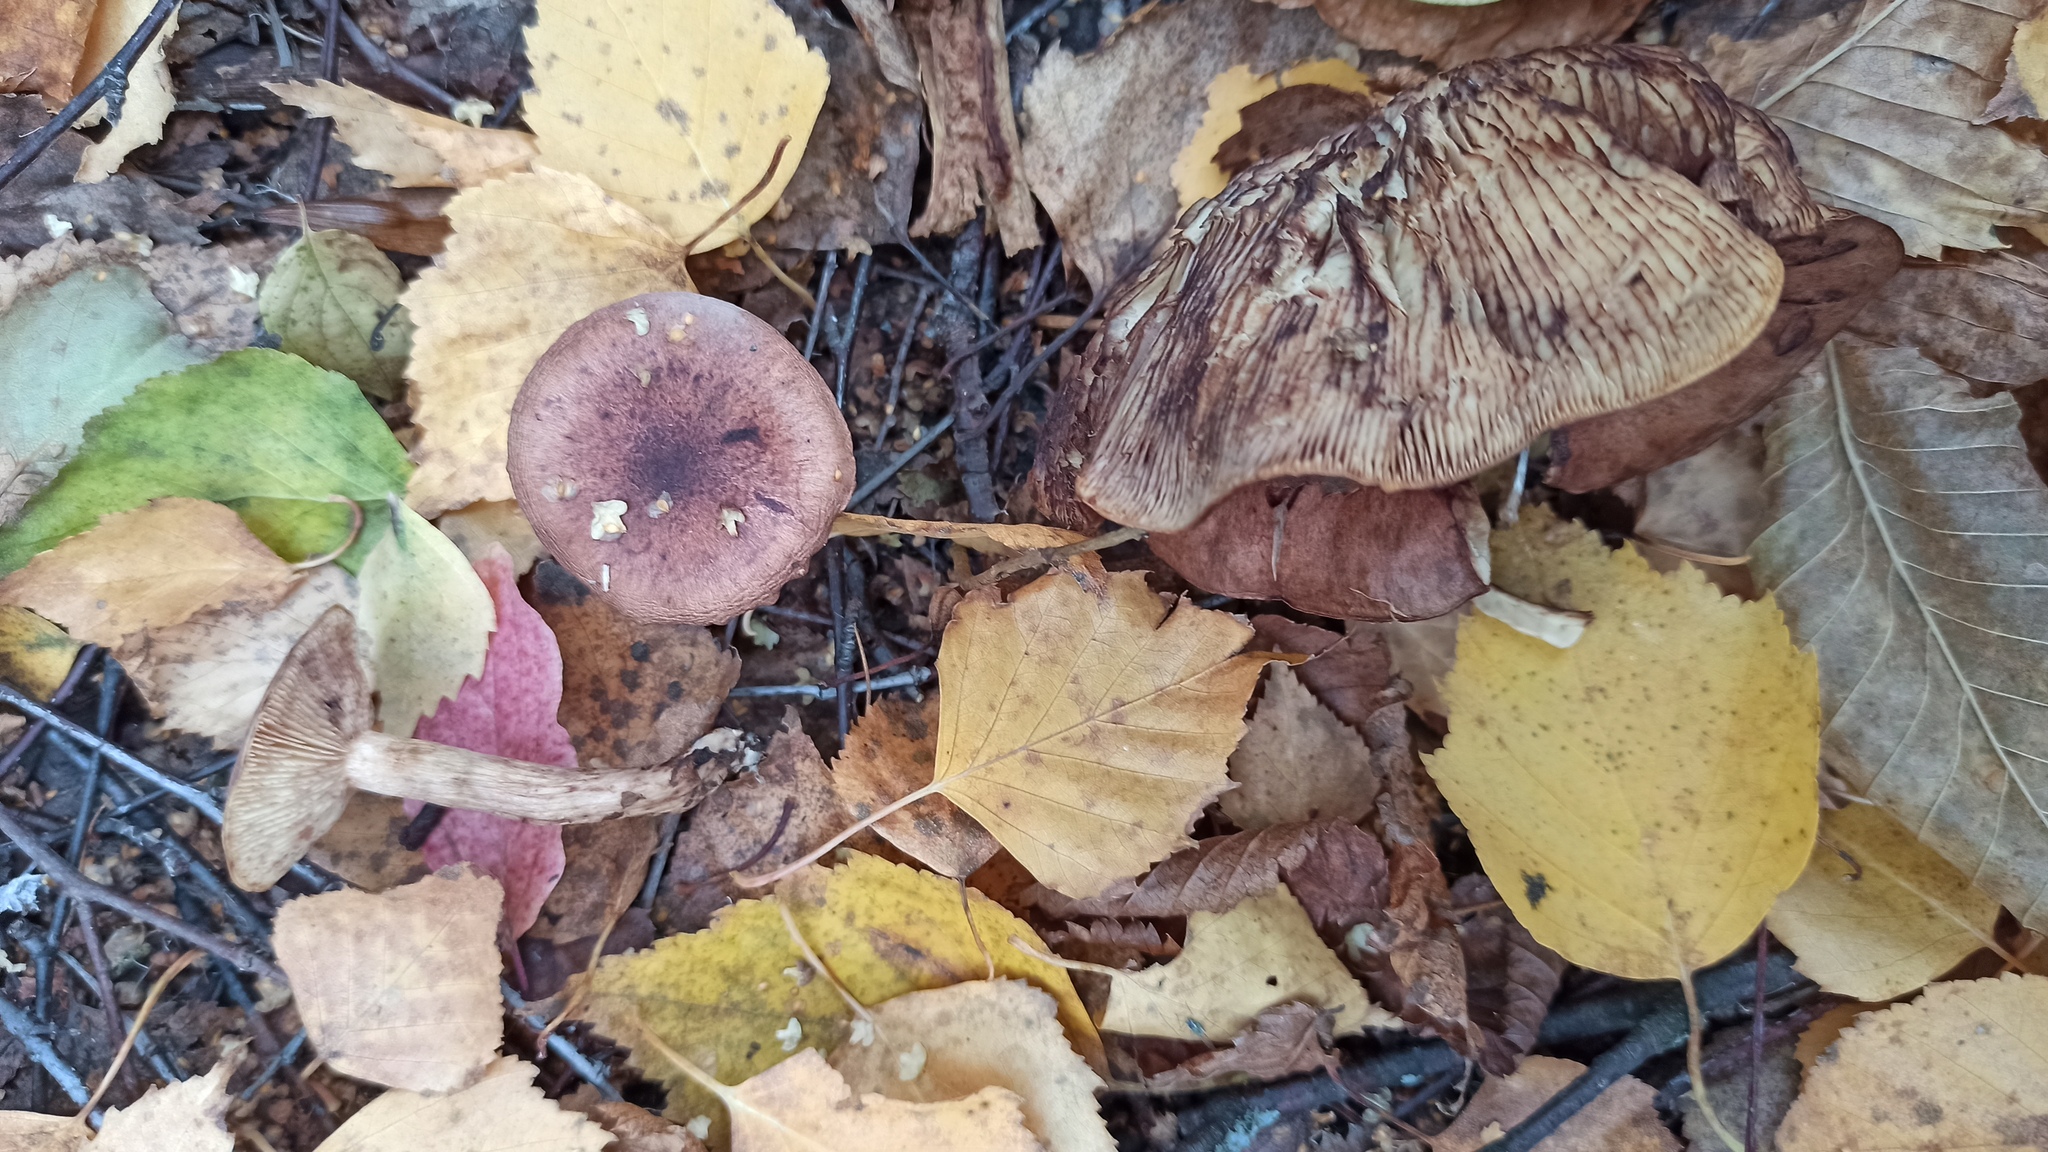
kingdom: Fungi
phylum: Basidiomycota
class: Agaricomycetes
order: Agaricales
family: Tricholomataceae
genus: Tricholoma
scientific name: Tricholoma fulvum
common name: Birch knight
